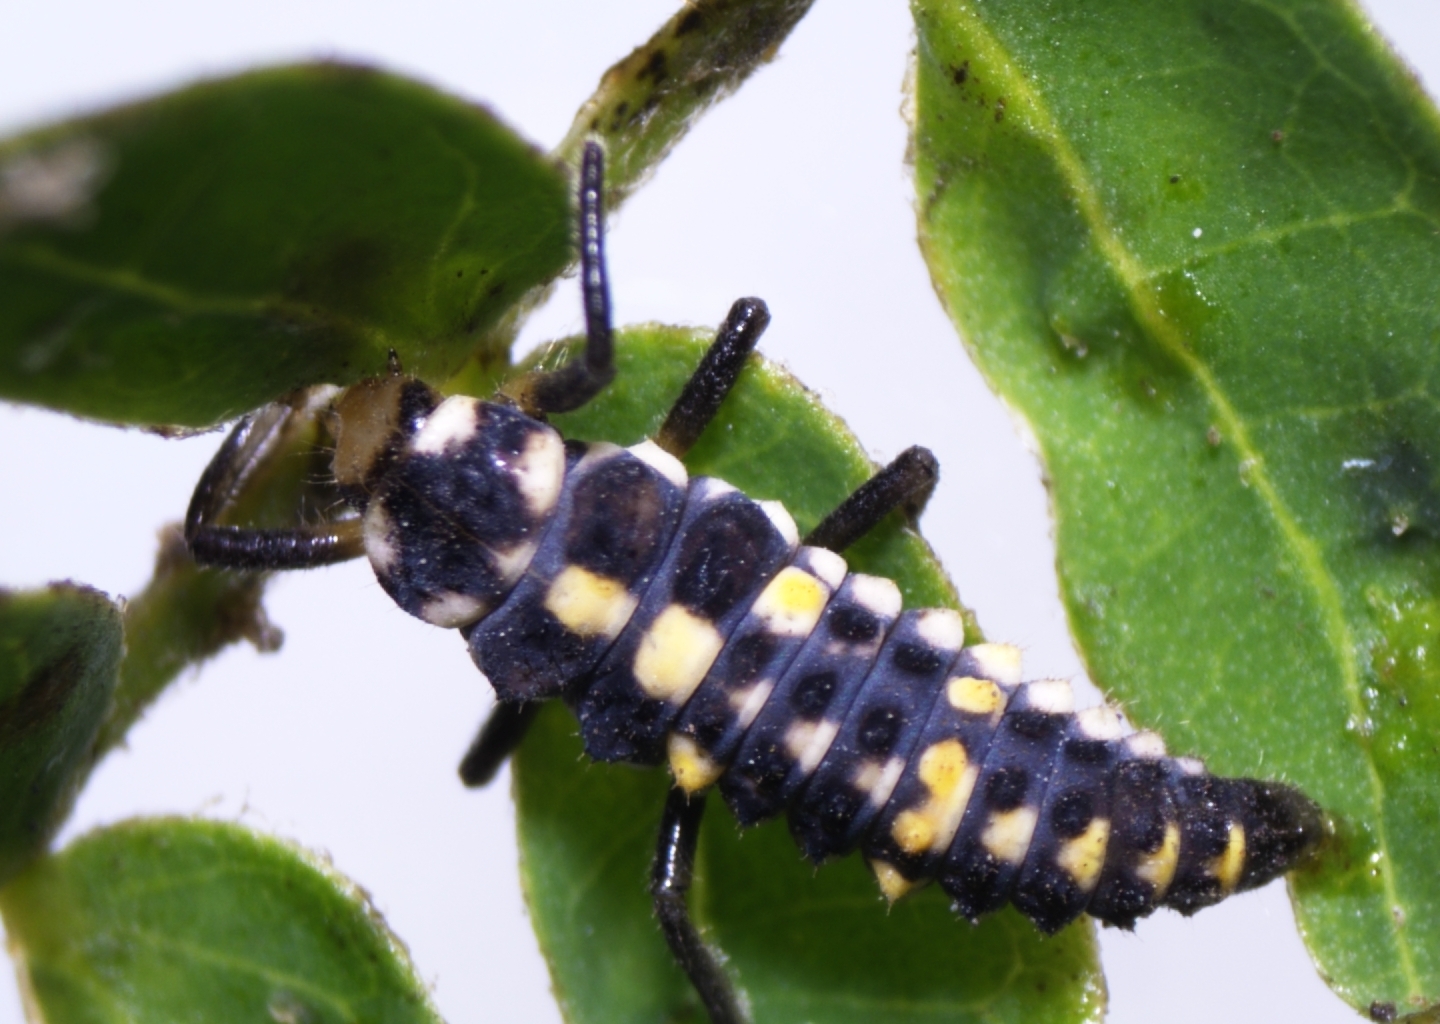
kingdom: Animalia
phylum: Arthropoda
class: Insecta
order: Coleoptera
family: Coccinellidae
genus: Olla
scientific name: Olla v-nigrum
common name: Ashy gray lady beetle
